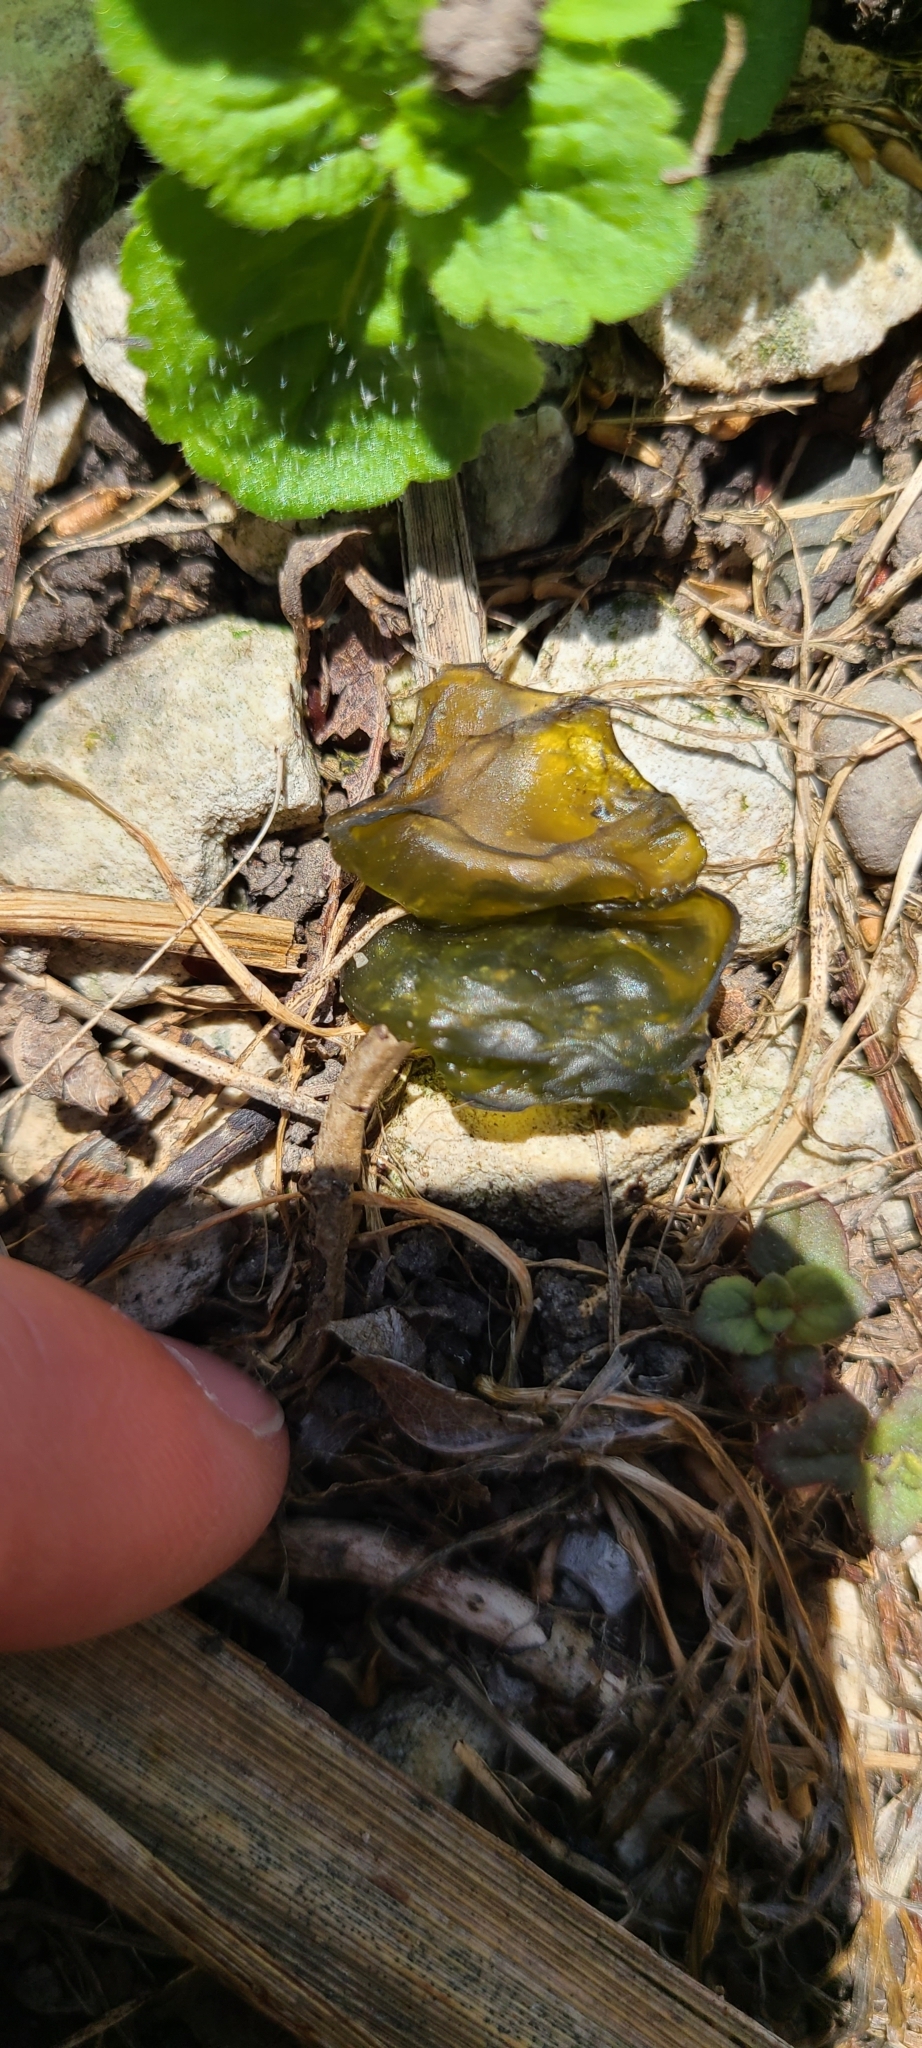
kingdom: Bacteria
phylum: Cyanobacteria
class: Cyanobacteriia
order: Cyanobacteriales
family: Nostocaceae
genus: Nostoc
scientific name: Nostoc commune
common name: Star jelly
